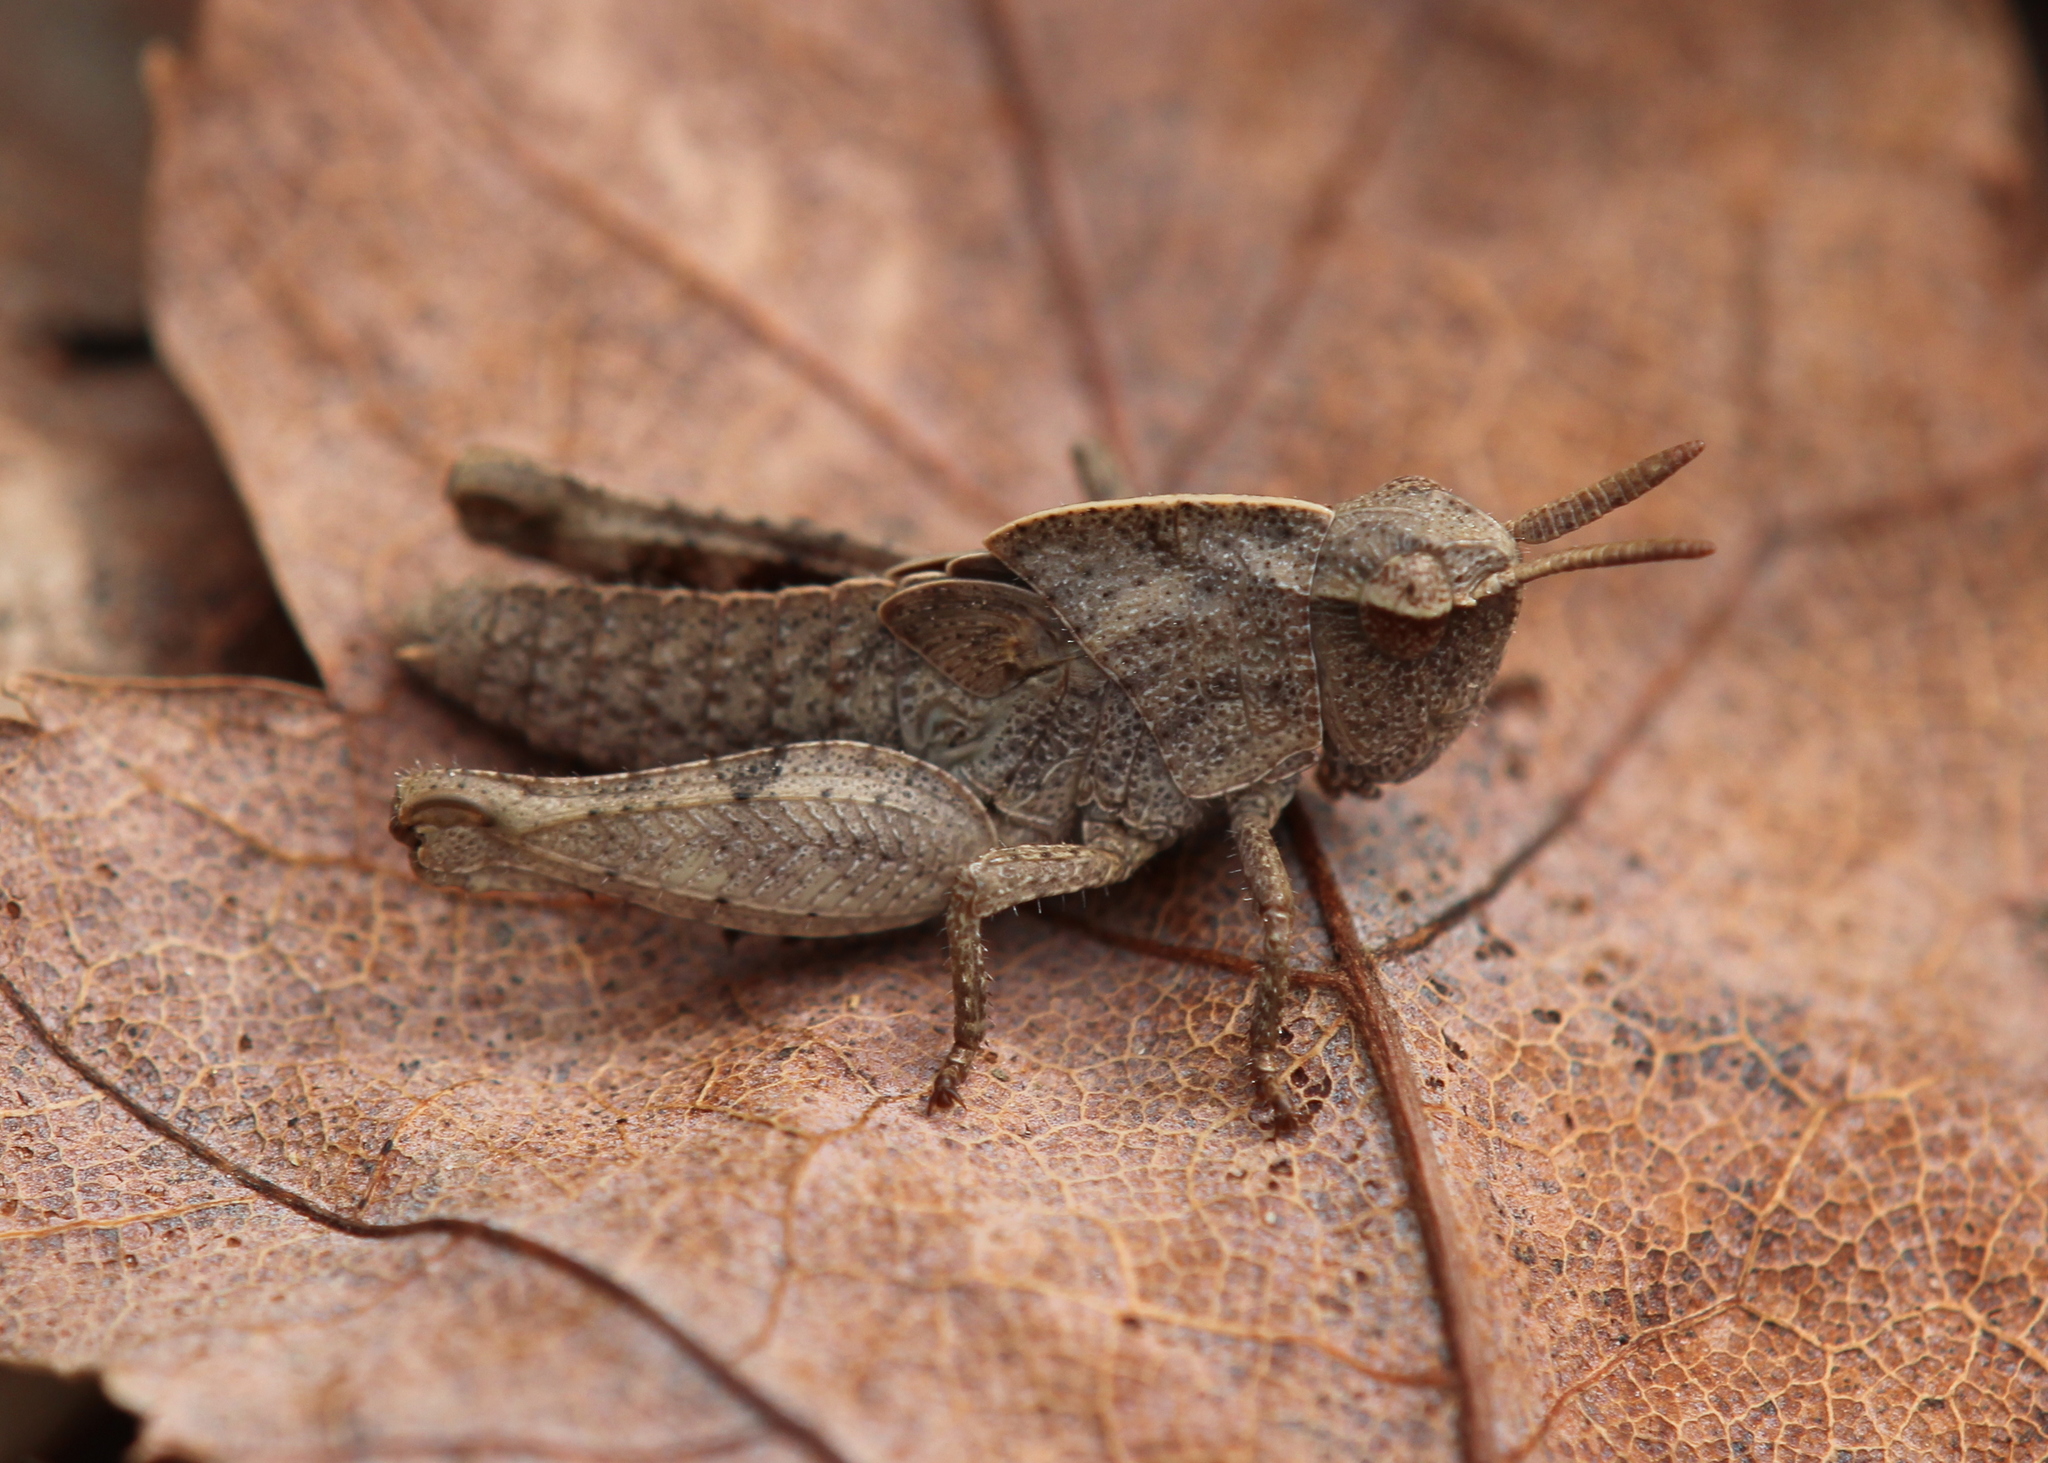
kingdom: Animalia
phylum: Arthropoda
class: Insecta
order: Orthoptera
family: Acrididae
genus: Chortophaga
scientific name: Chortophaga viridifasciata
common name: Green-striped grasshopper
